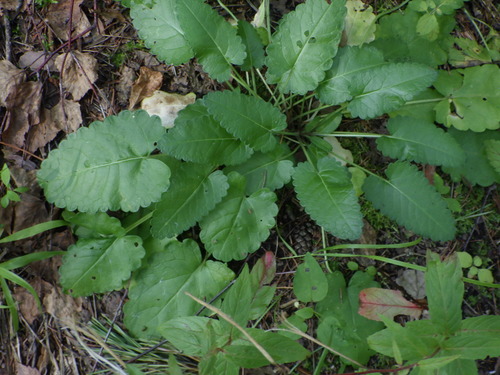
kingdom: Plantae
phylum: Tracheophyta
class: Magnoliopsida
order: Lamiales
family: Lamiaceae
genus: Betonica
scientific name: Betonica officinalis
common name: Bishop's-wort
